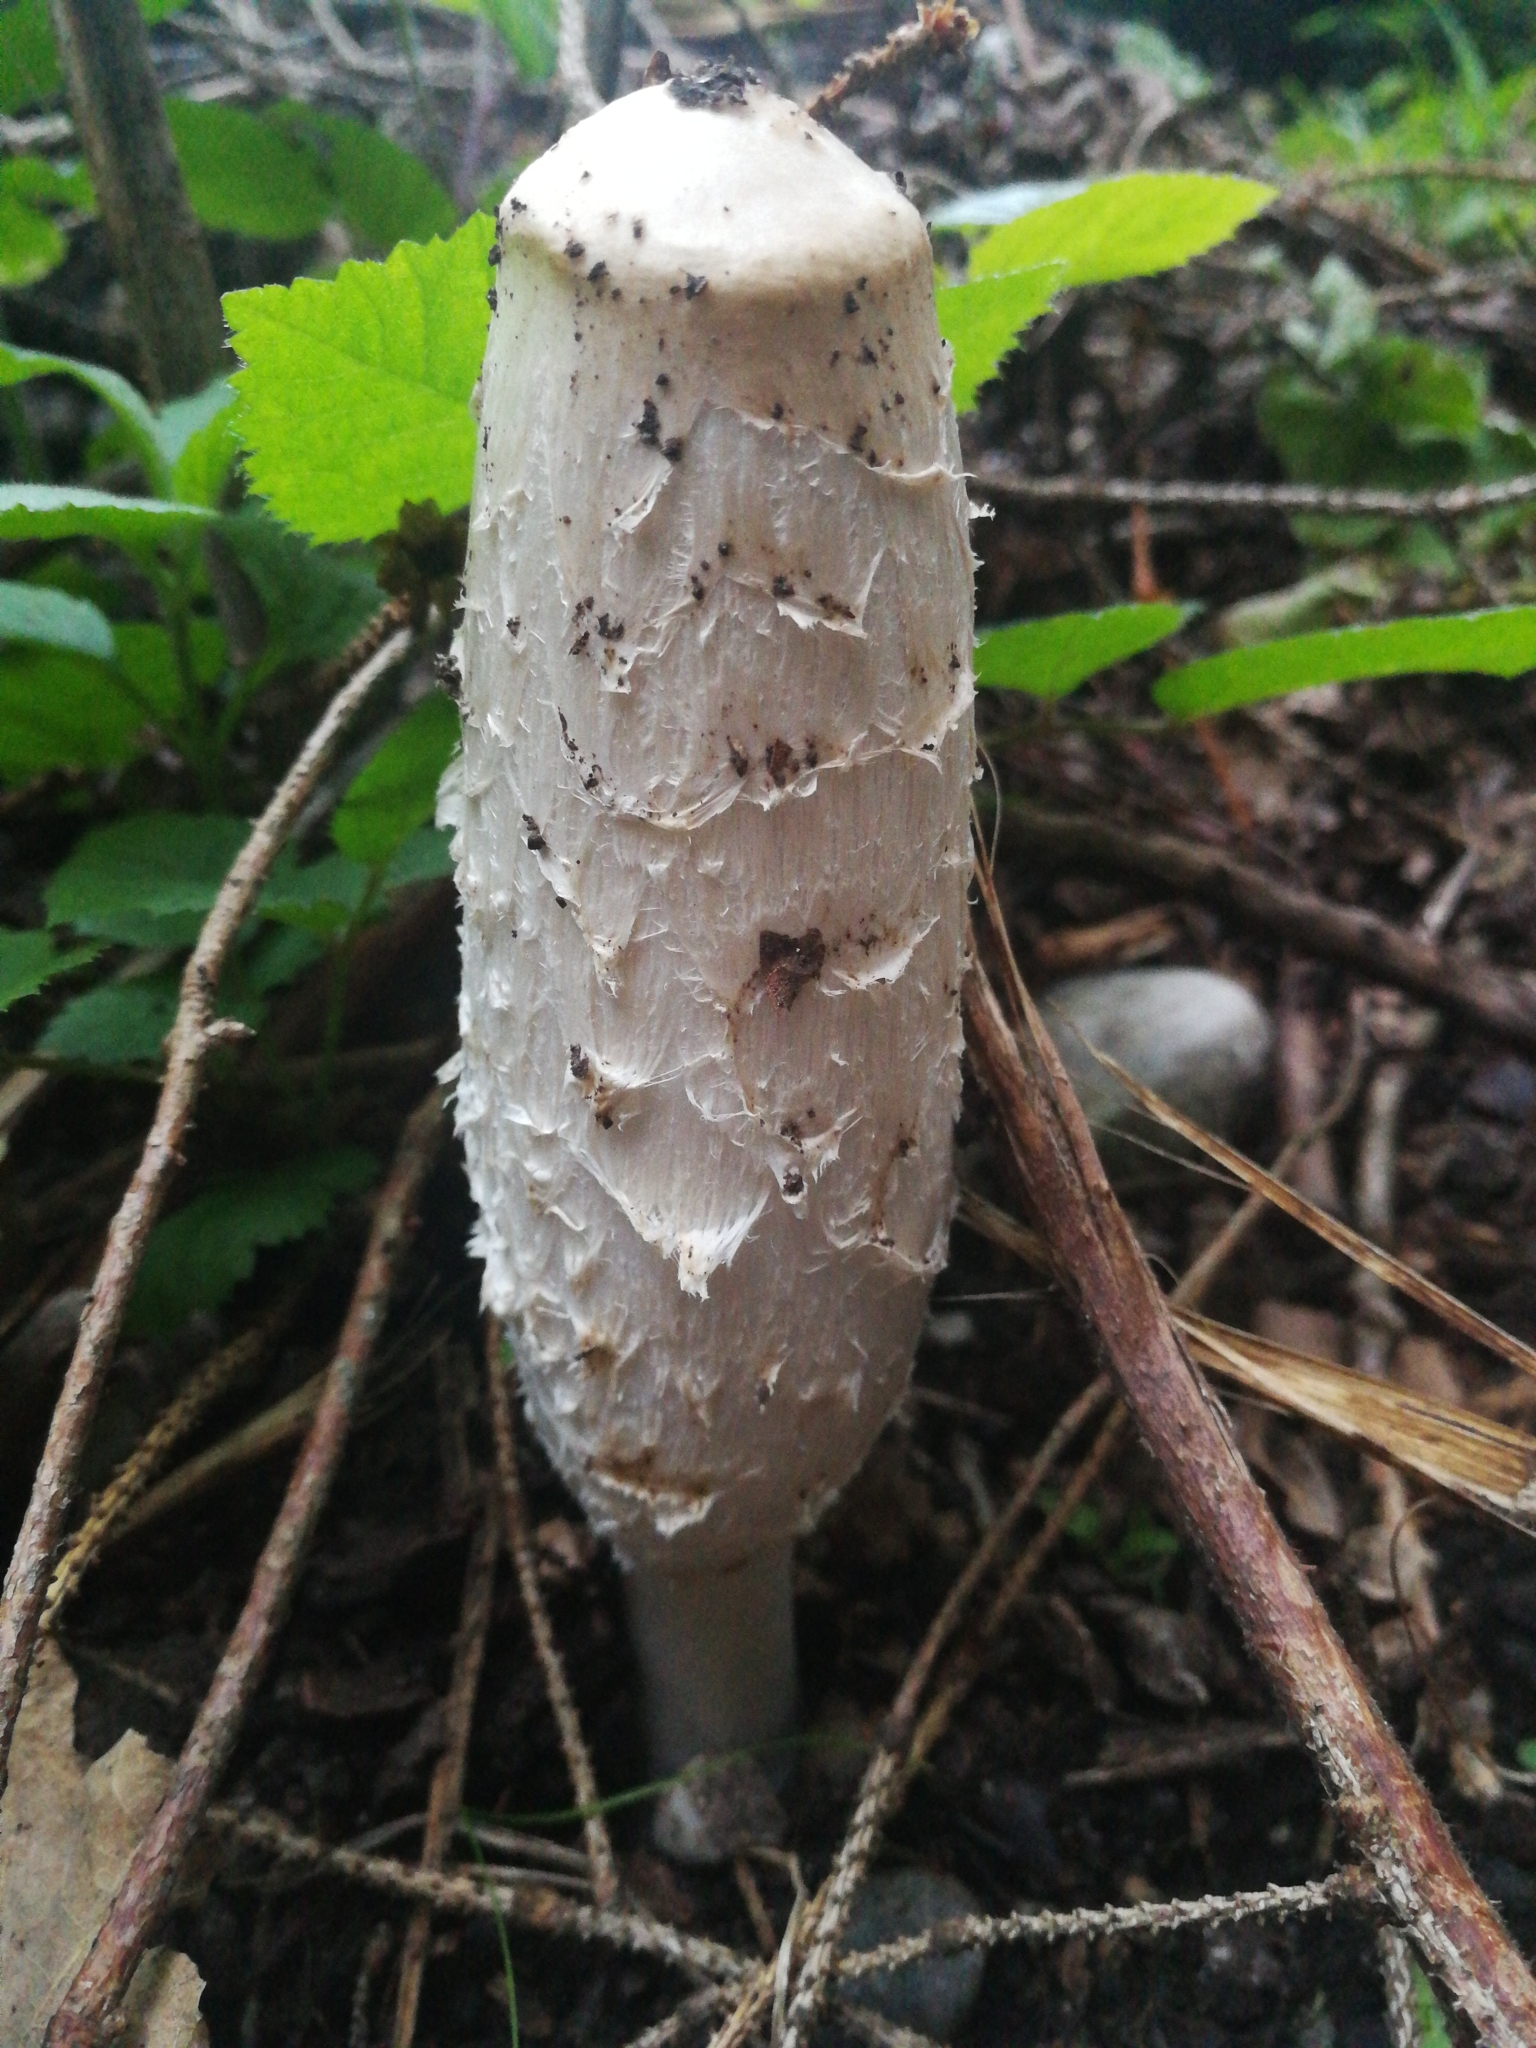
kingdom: Fungi
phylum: Basidiomycota
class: Agaricomycetes
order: Agaricales
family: Agaricaceae
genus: Coprinus
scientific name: Coprinus comatus
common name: Lawyer's wig
